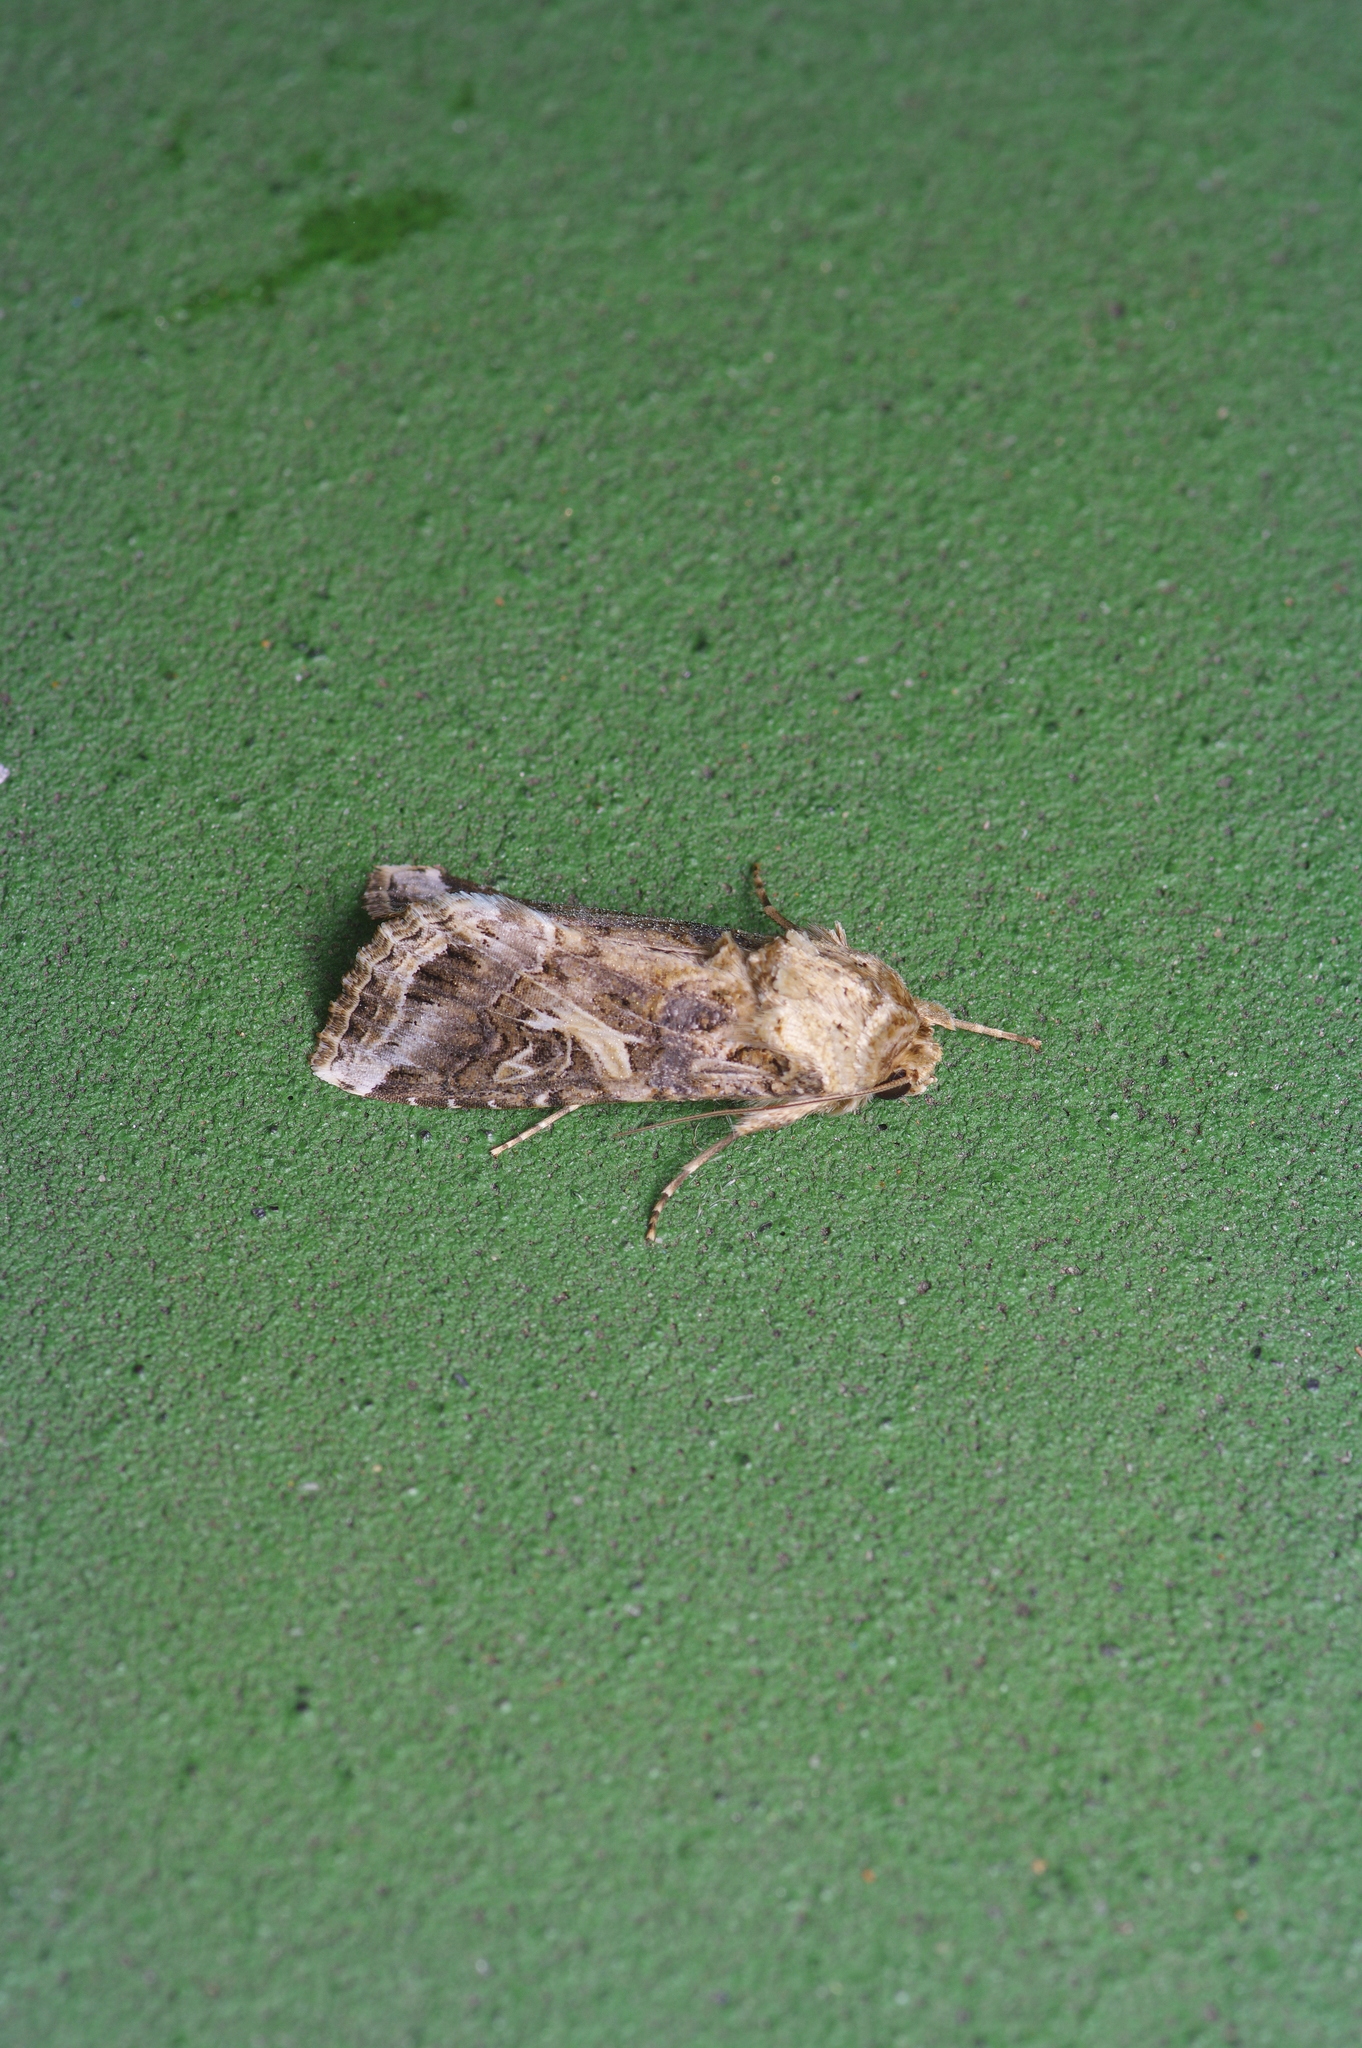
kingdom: Animalia
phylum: Arthropoda
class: Insecta
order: Lepidoptera
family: Noctuidae
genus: Spodoptera
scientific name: Spodoptera ornithogalli
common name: Yellow-striped armyworm
